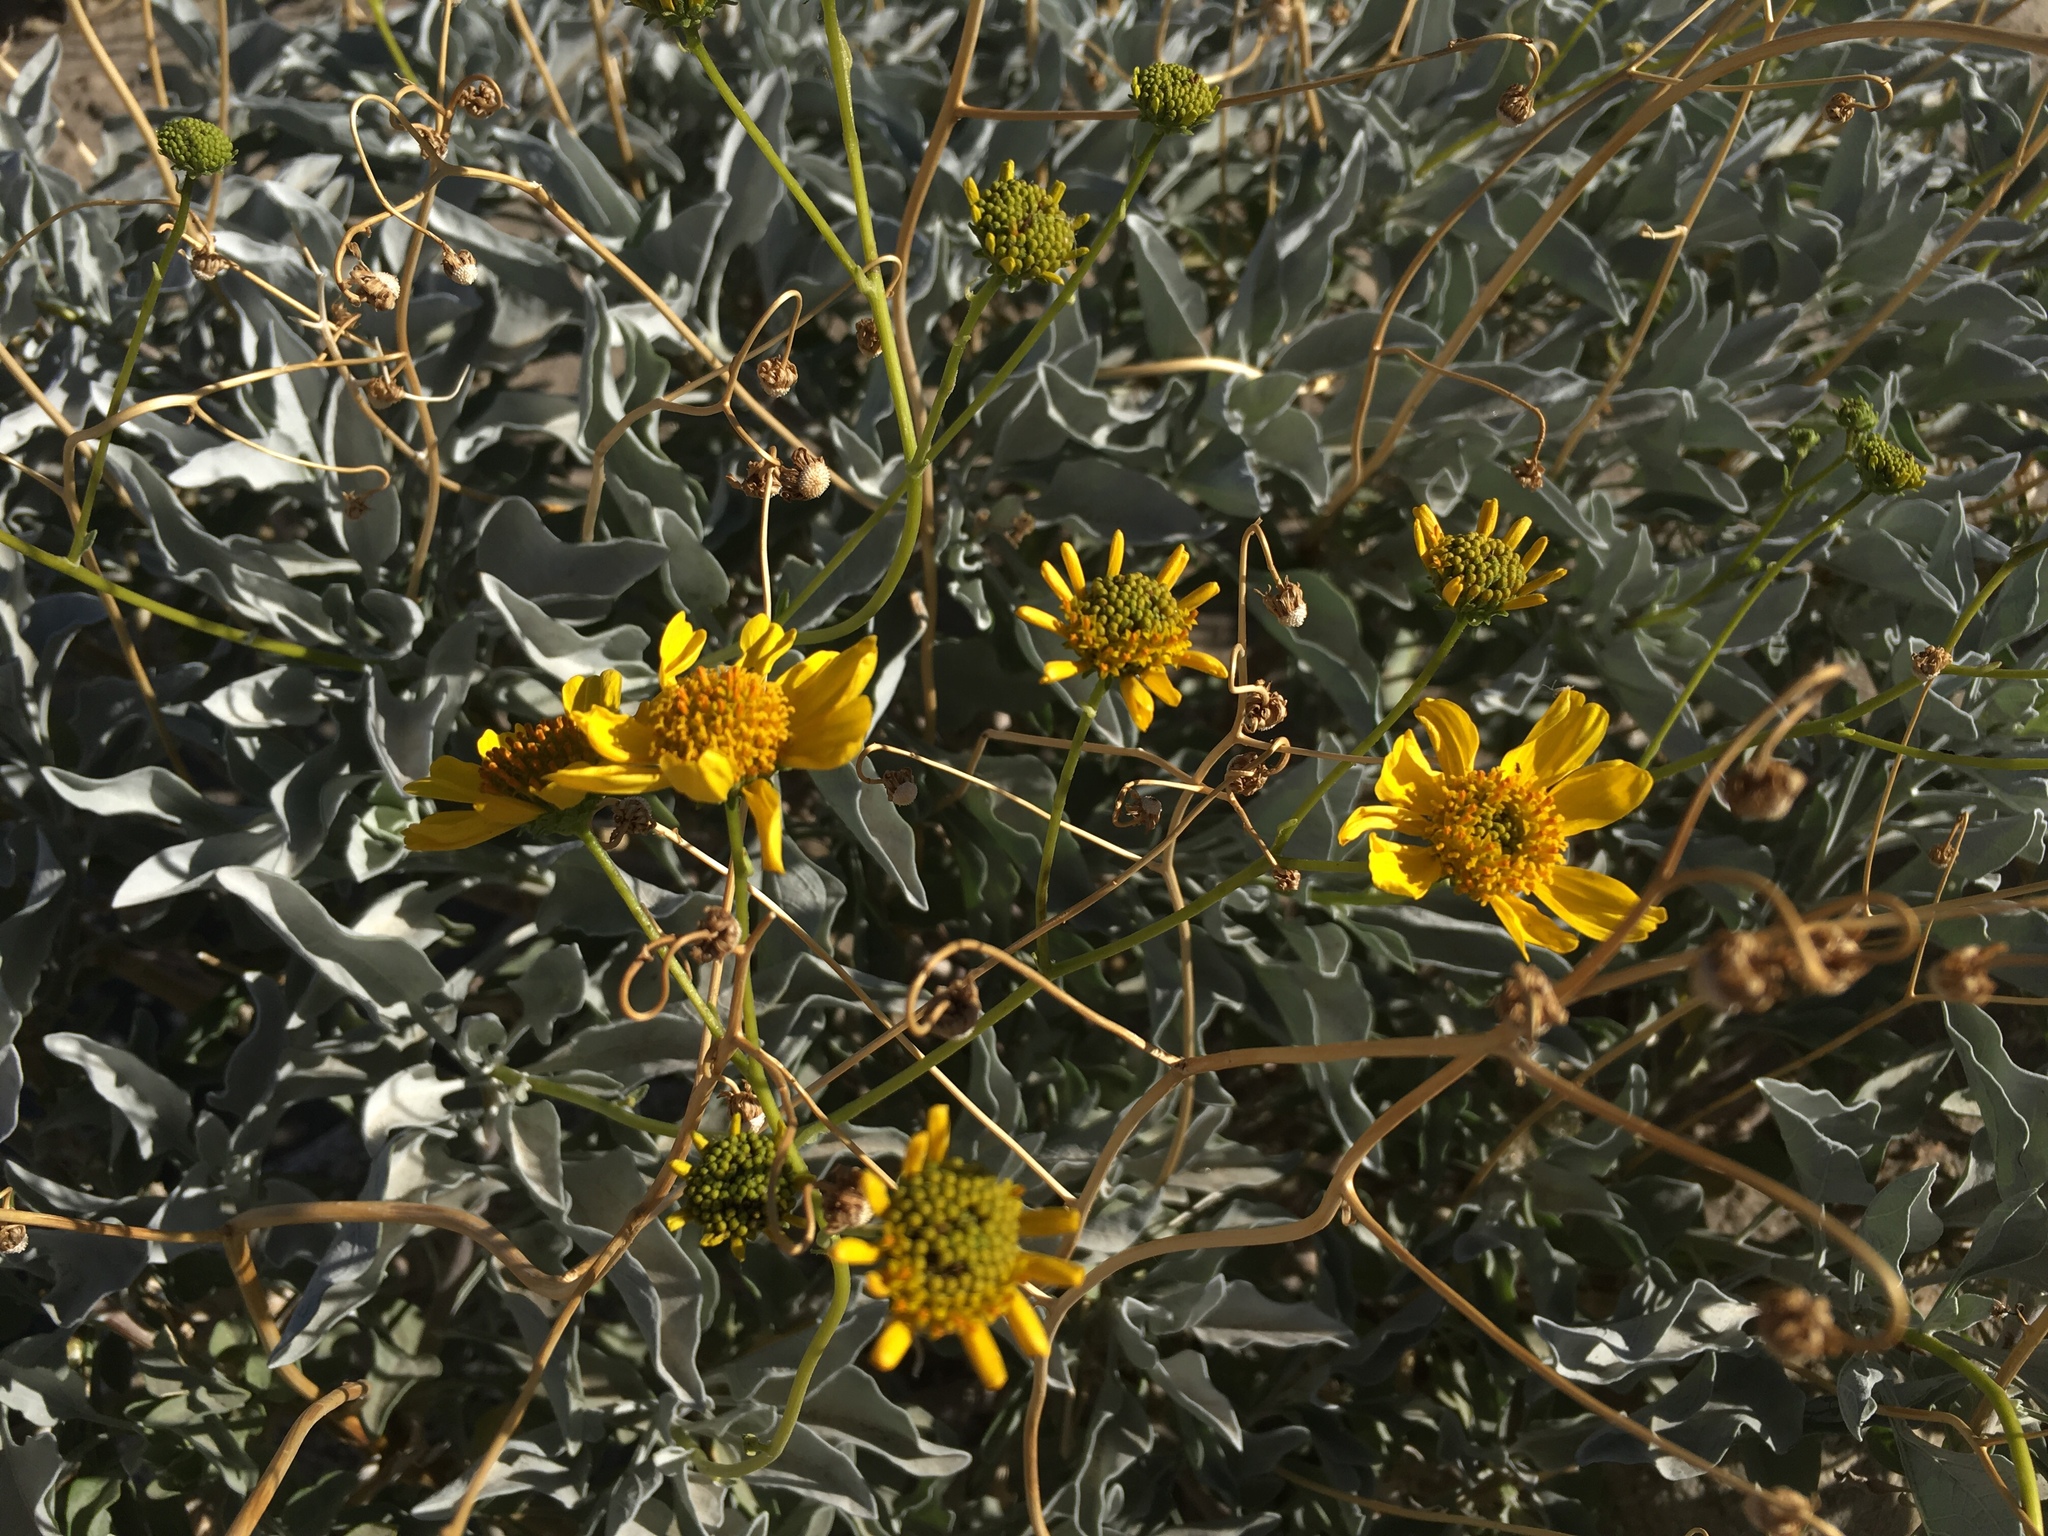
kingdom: Plantae
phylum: Tracheophyta
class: Magnoliopsida
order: Asterales
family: Asteraceae
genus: Encelia
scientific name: Encelia farinosa
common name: Brittlebush
